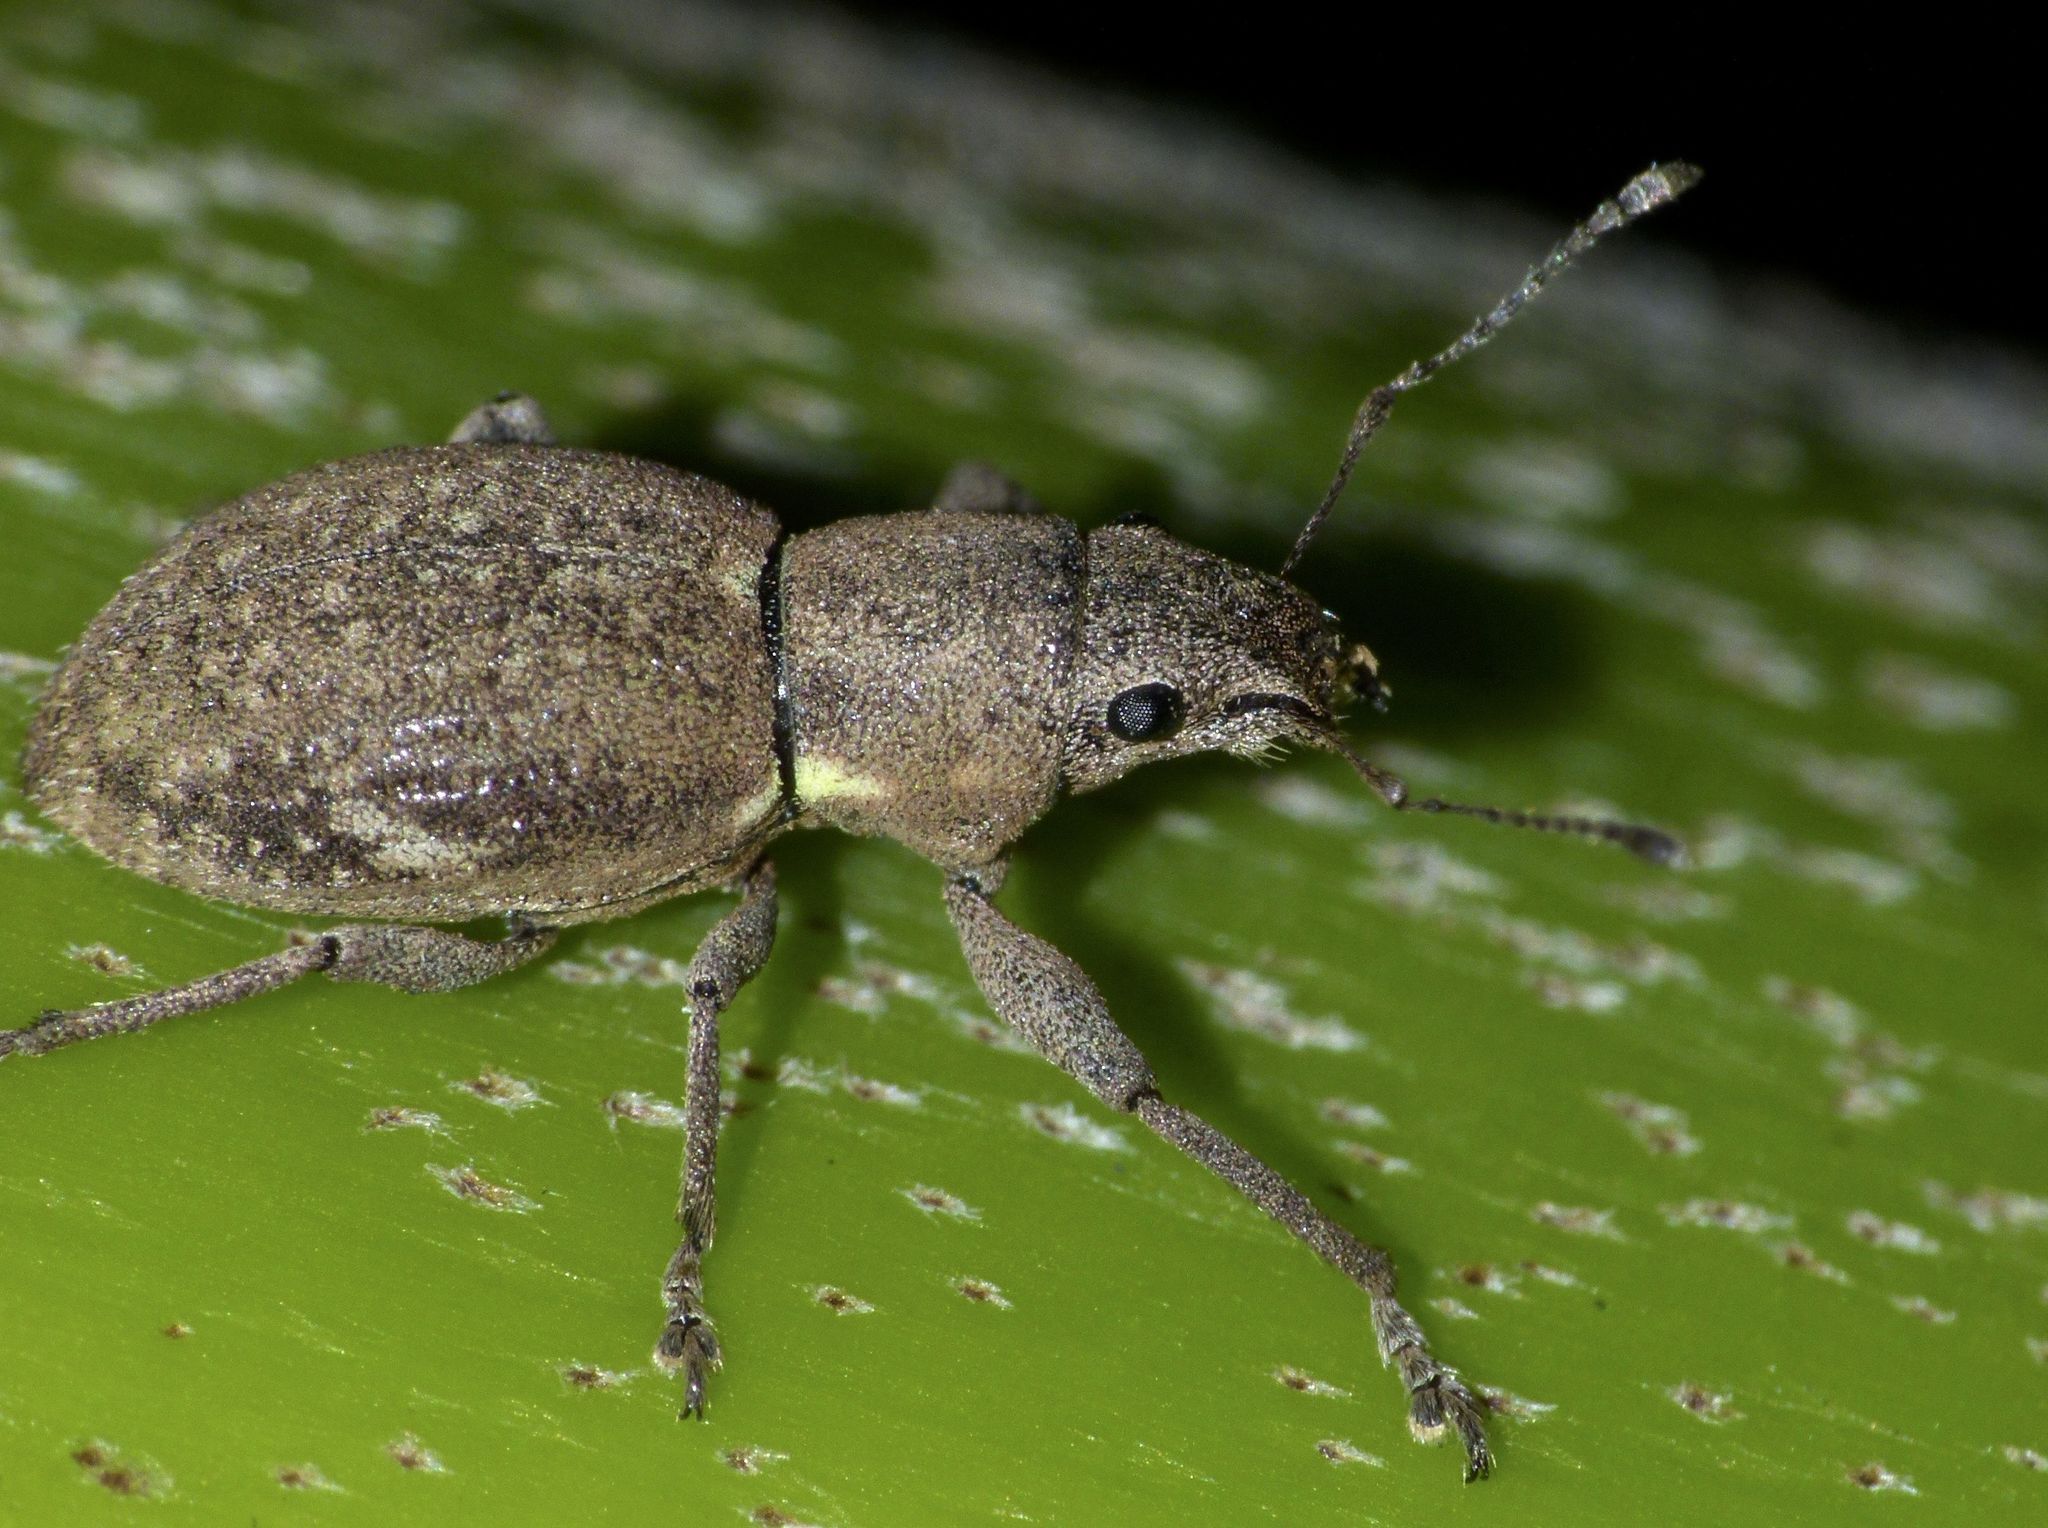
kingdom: Animalia
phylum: Arthropoda
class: Insecta
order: Coleoptera
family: Curculionidae
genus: Naupactus
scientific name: Naupactus cervinus
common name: Fuller rose beetle
